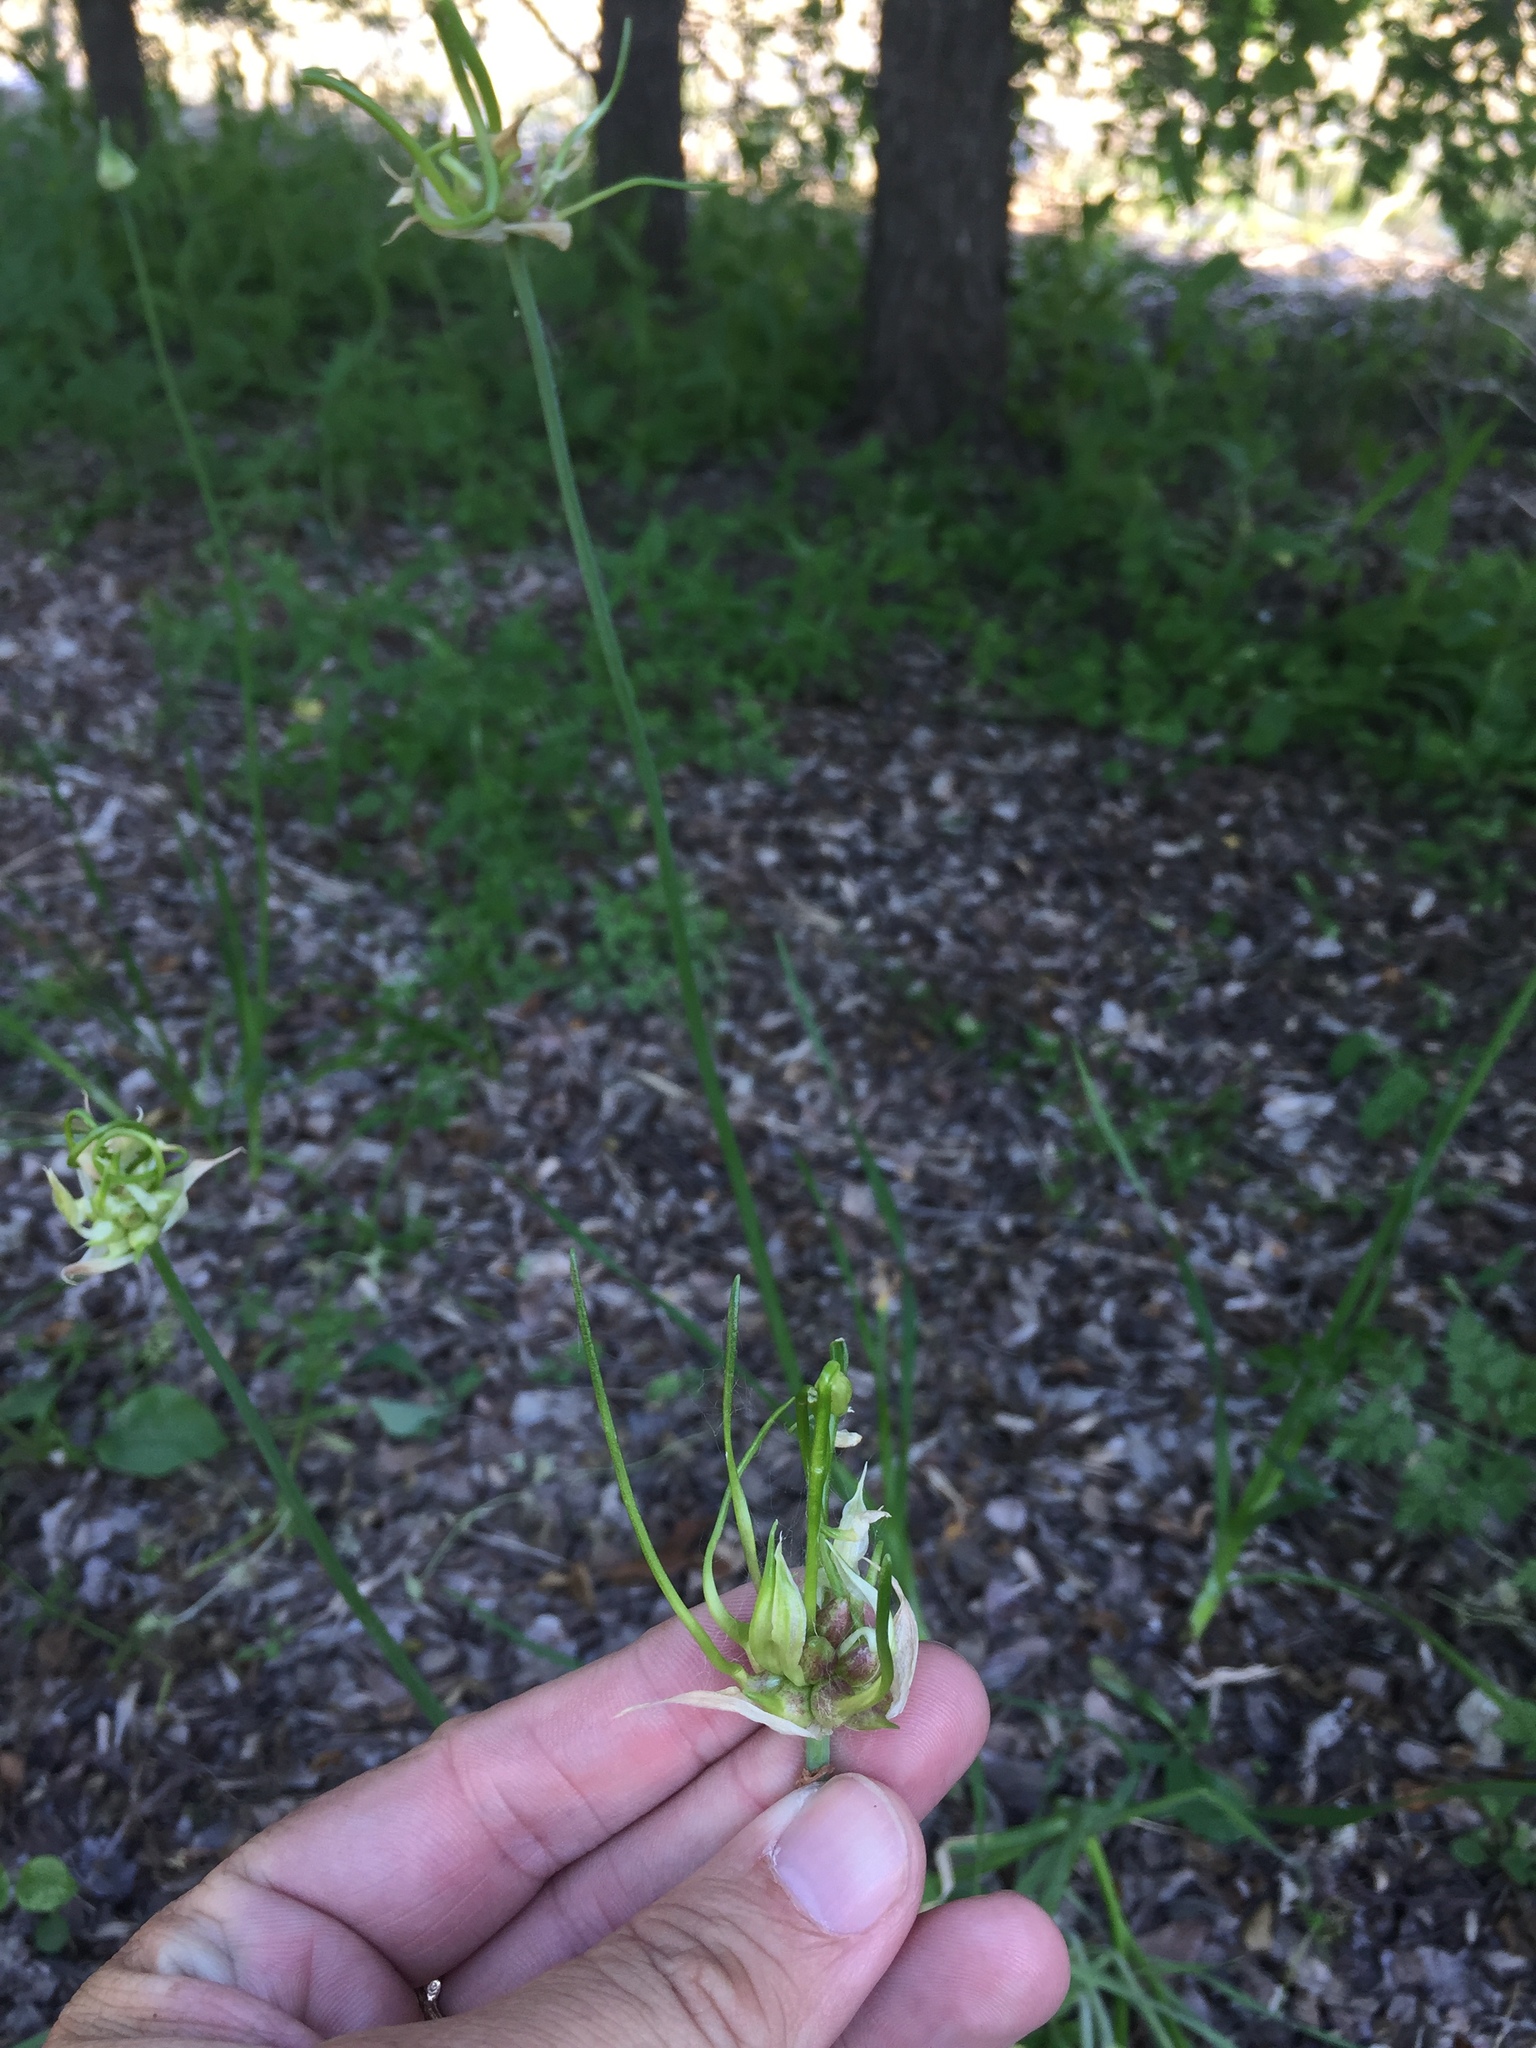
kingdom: Plantae
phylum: Tracheophyta
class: Liliopsida
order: Asparagales
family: Amaryllidaceae
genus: Allium
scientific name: Allium canadense
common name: Meadow garlic
